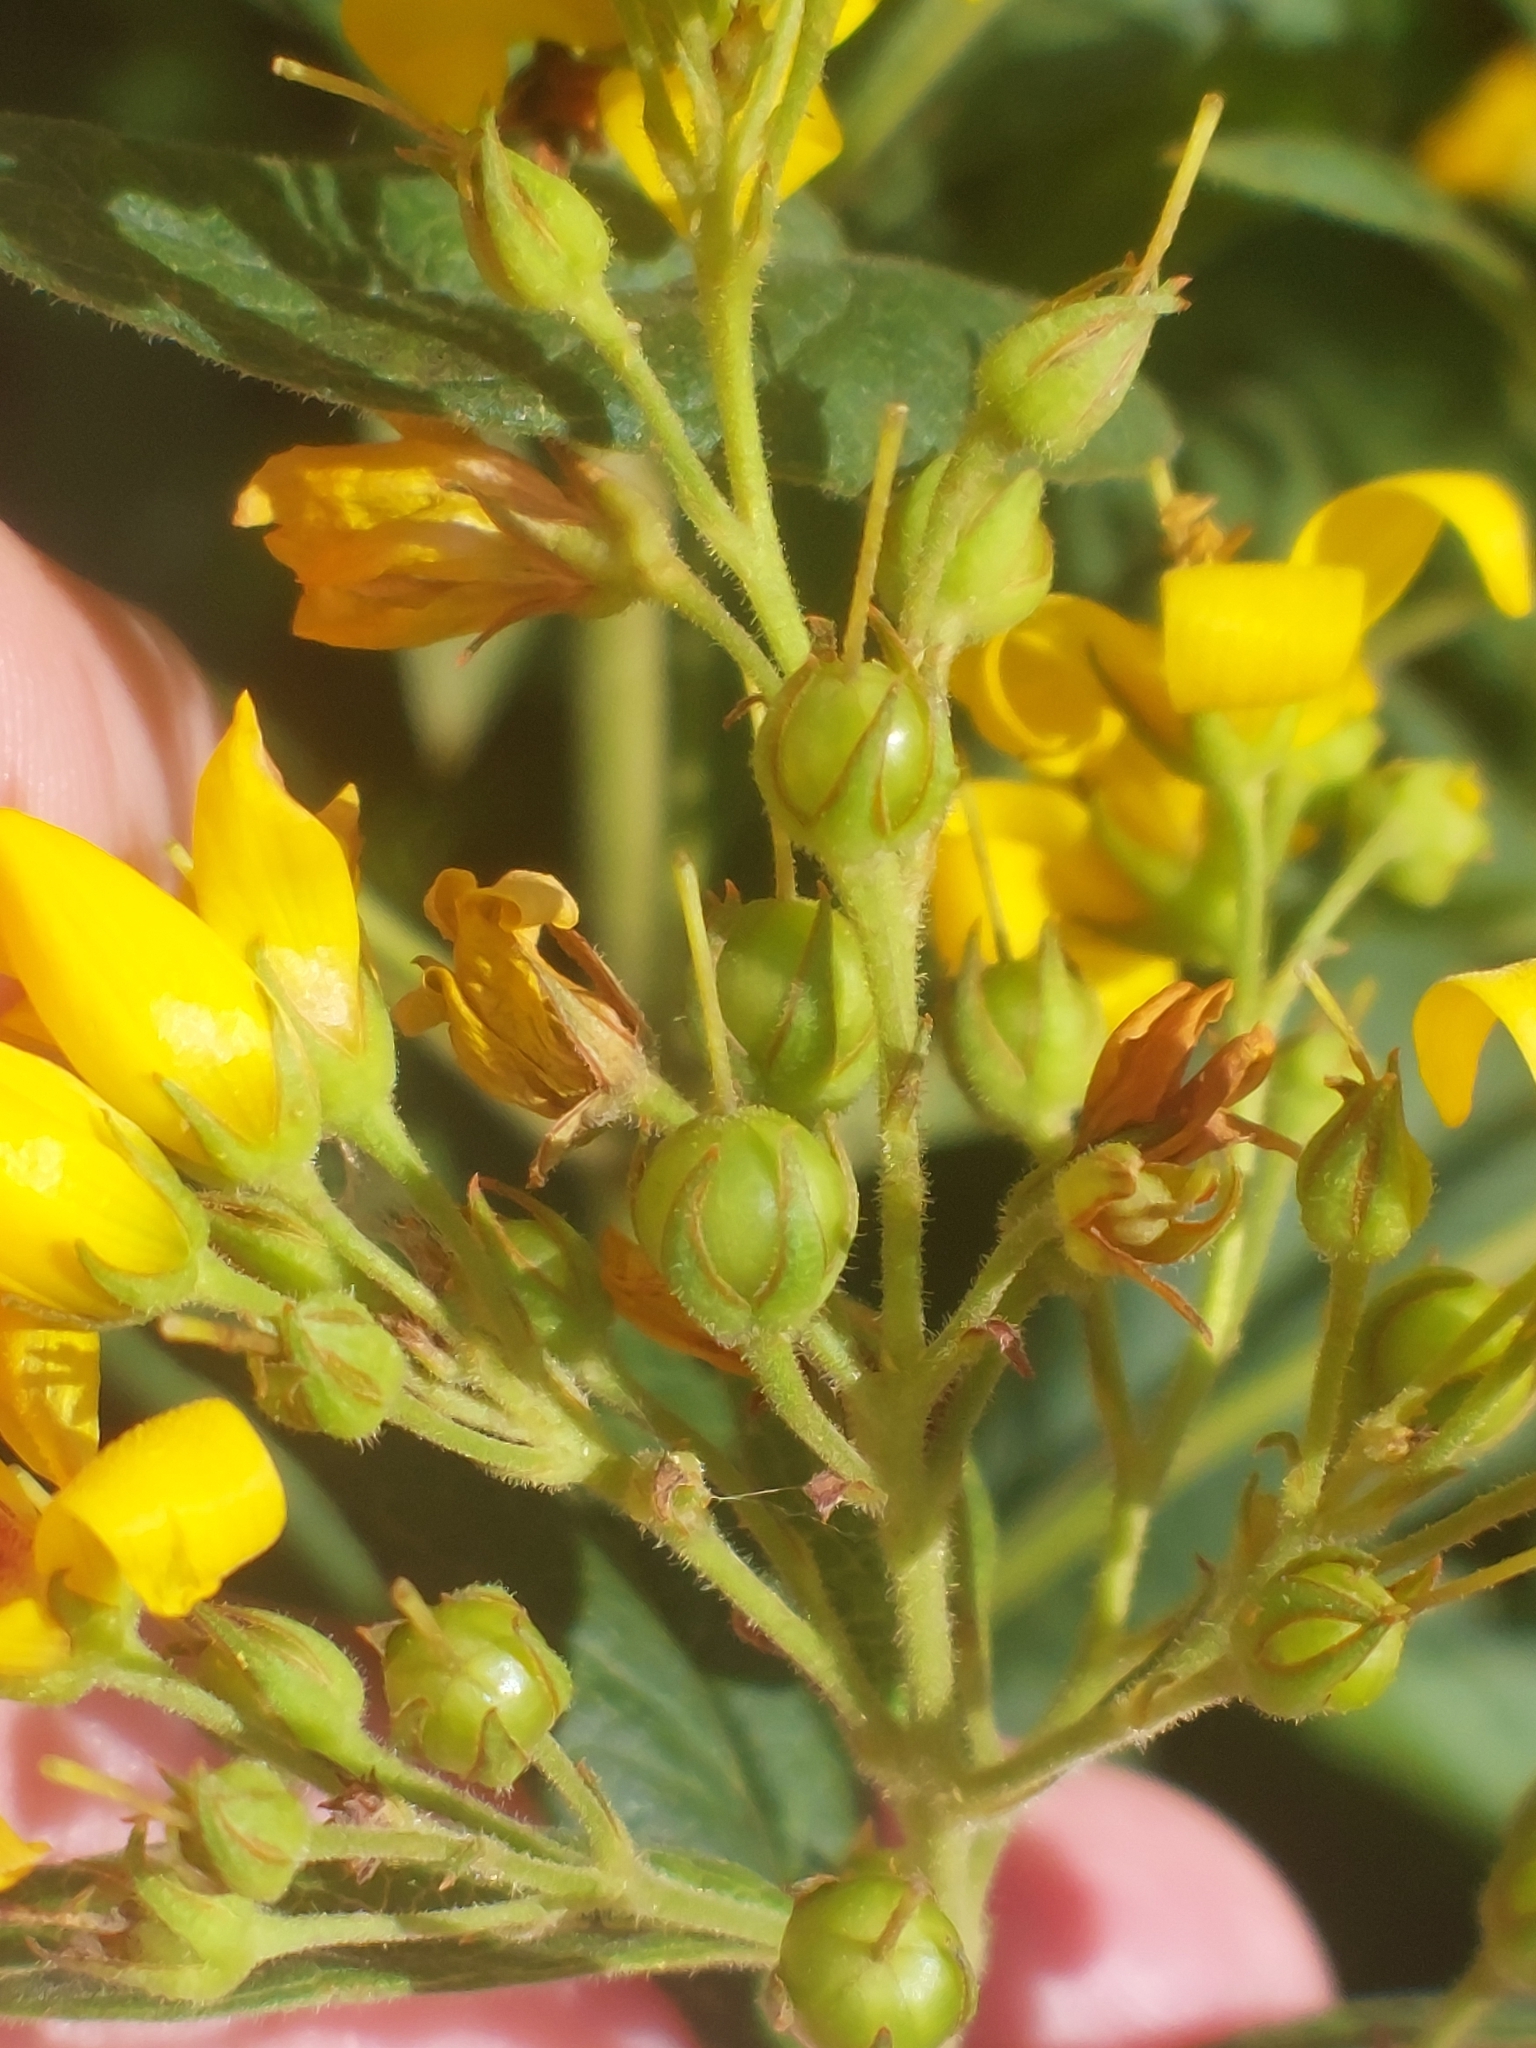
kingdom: Plantae
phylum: Tracheophyta
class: Magnoliopsida
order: Ericales
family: Primulaceae
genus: Lysimachia
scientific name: Lysimachia vulgaris
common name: Yellow loosestrife
